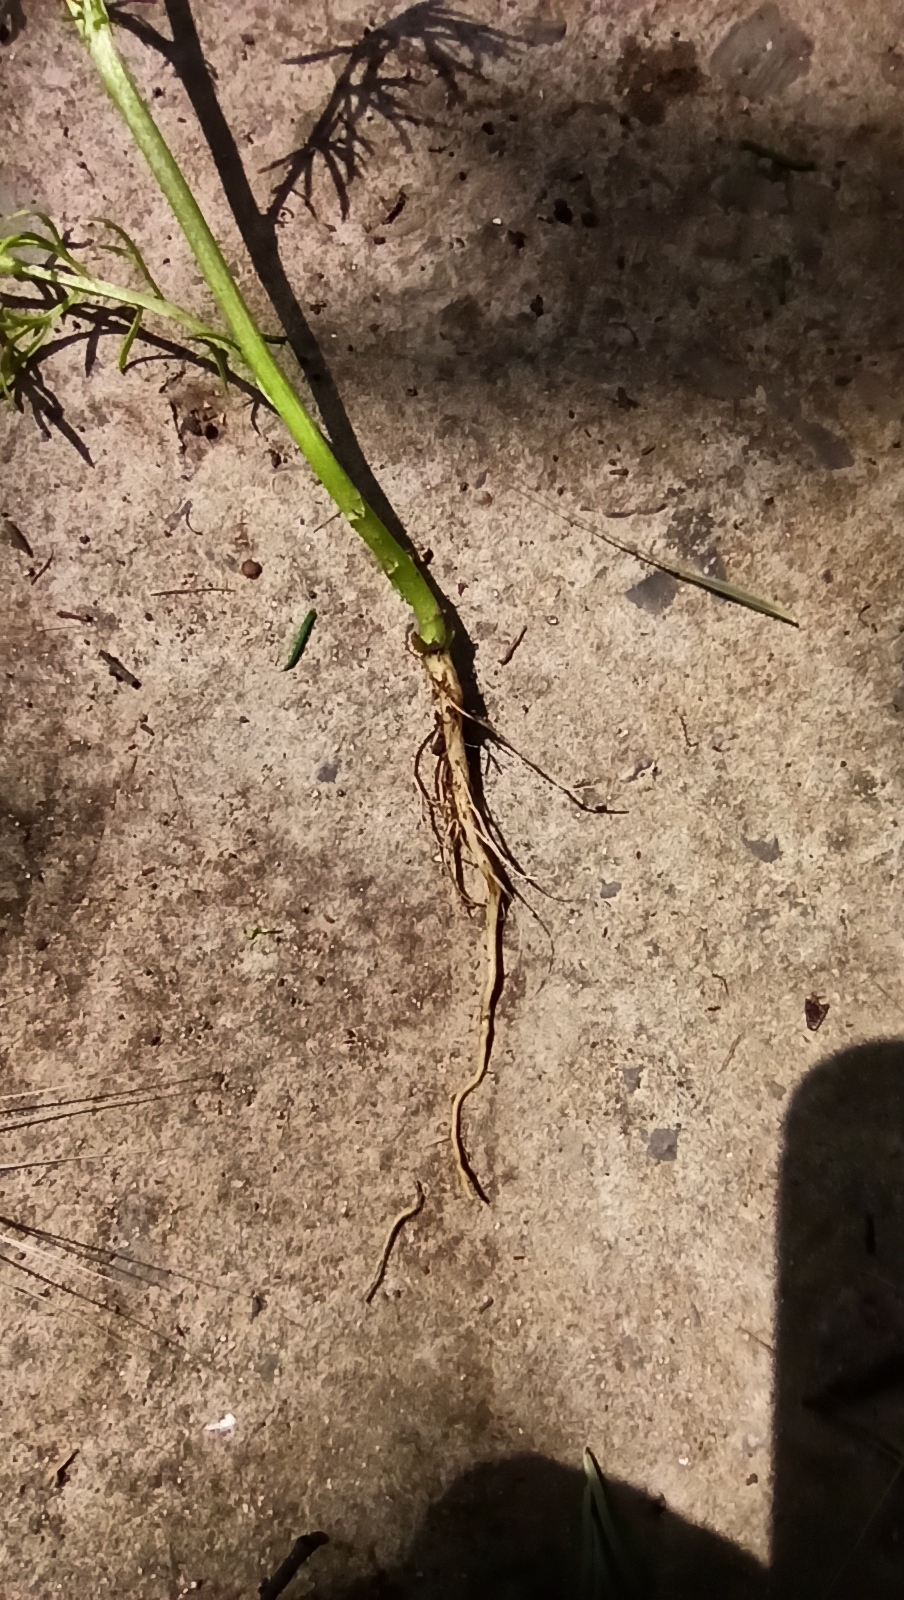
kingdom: Plantae
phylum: Tracheophyta
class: Magnoliopsida
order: Asterales
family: Asteraceae
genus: Tripleurospermum
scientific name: Tripleurospermum inodorum
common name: Scentless mayweed
